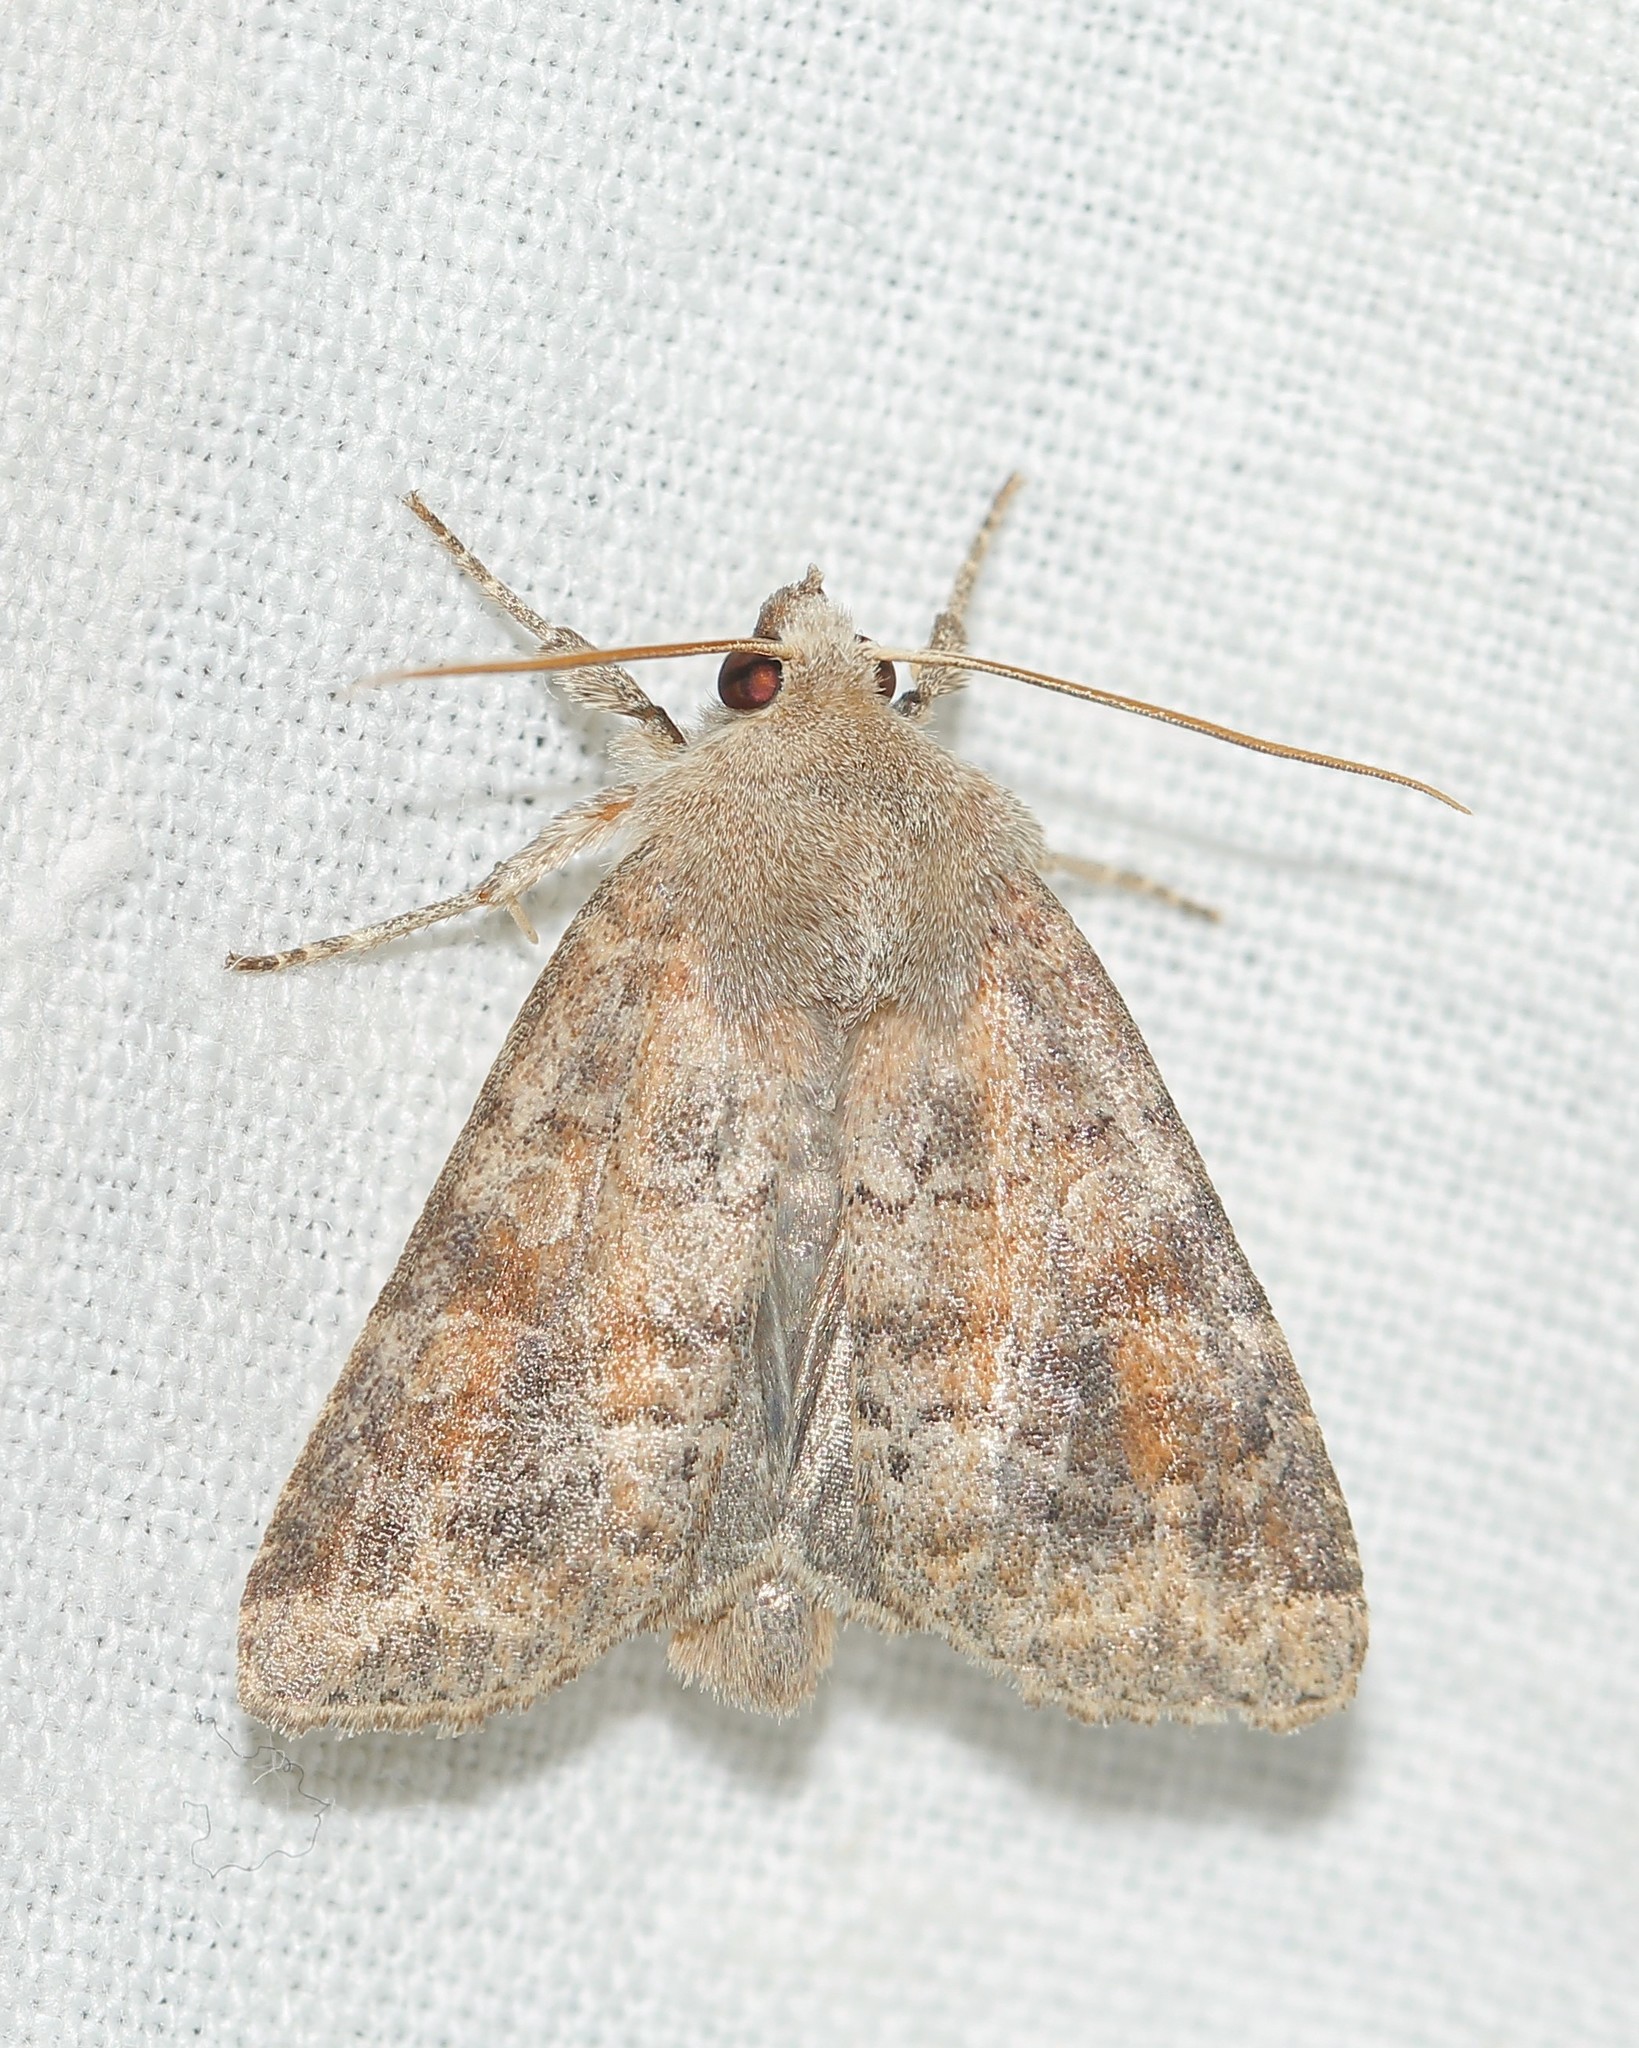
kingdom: Animalia
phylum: Arthropoda
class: Insecta
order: Lepidoptera
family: Noctuidae
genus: Parastichtis
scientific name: Parastichtis suspecta
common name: Suspected
